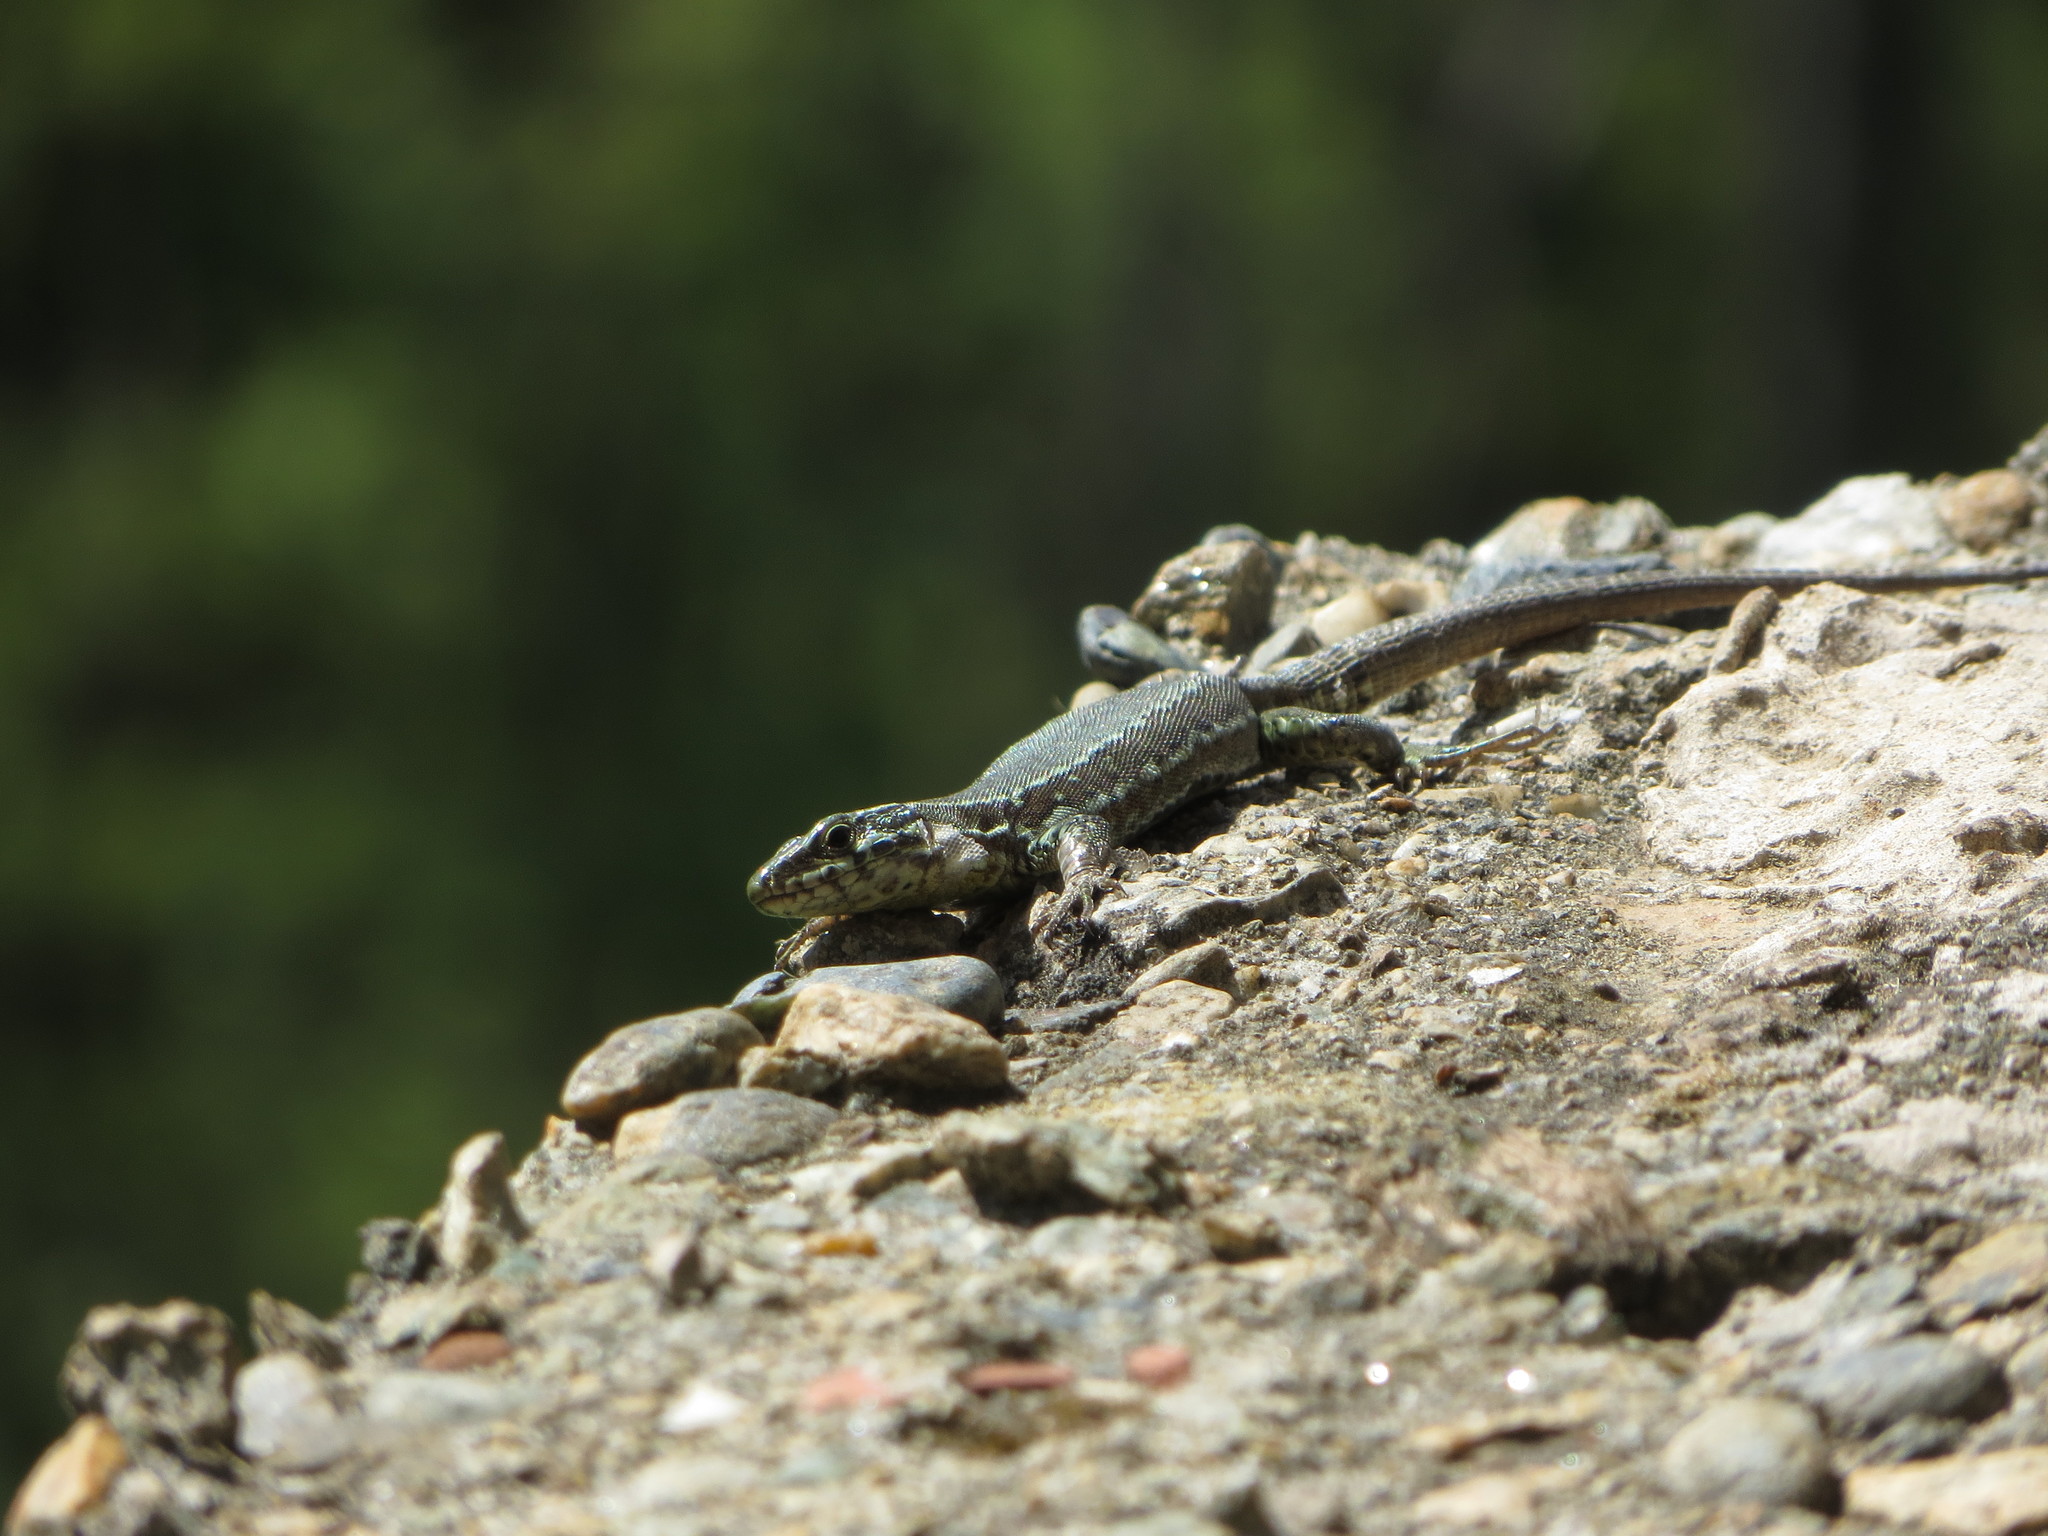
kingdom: Animalia
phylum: Chordata
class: Squamata
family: Lacertidae
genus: Podarcis
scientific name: Podarcis muralis
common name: Common wall lizard
